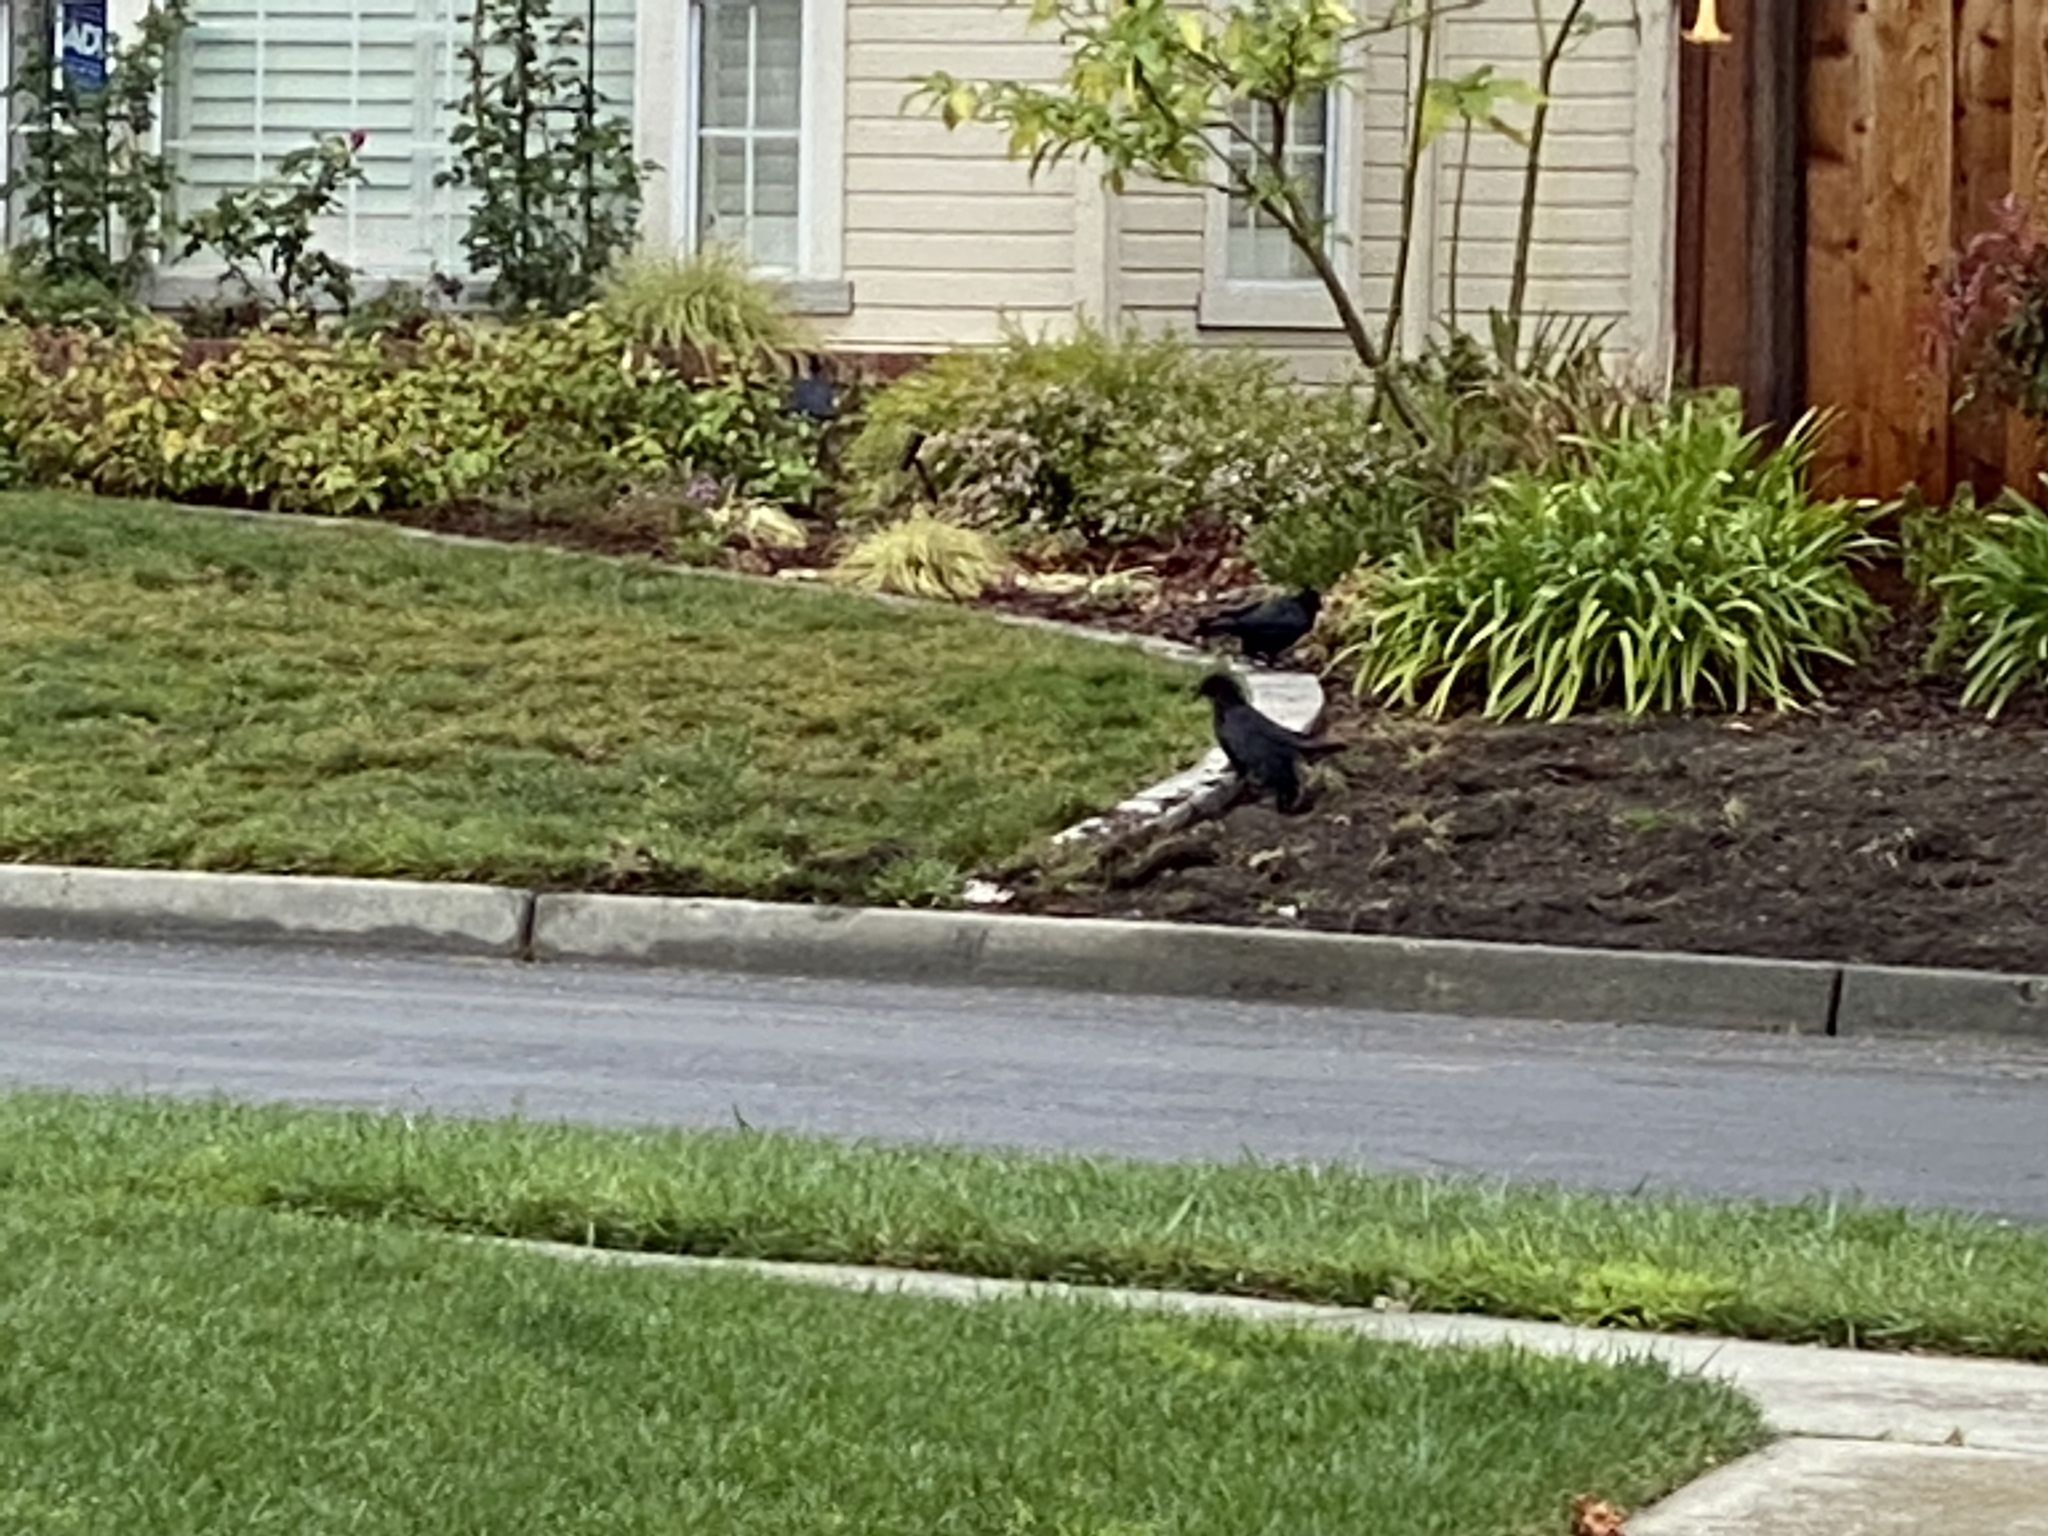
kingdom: Animalia
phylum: Chordata
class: Aves
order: Passeriformes
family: Corvidae
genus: Corvus
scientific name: Corvus brachyrhynchos
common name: American crow
